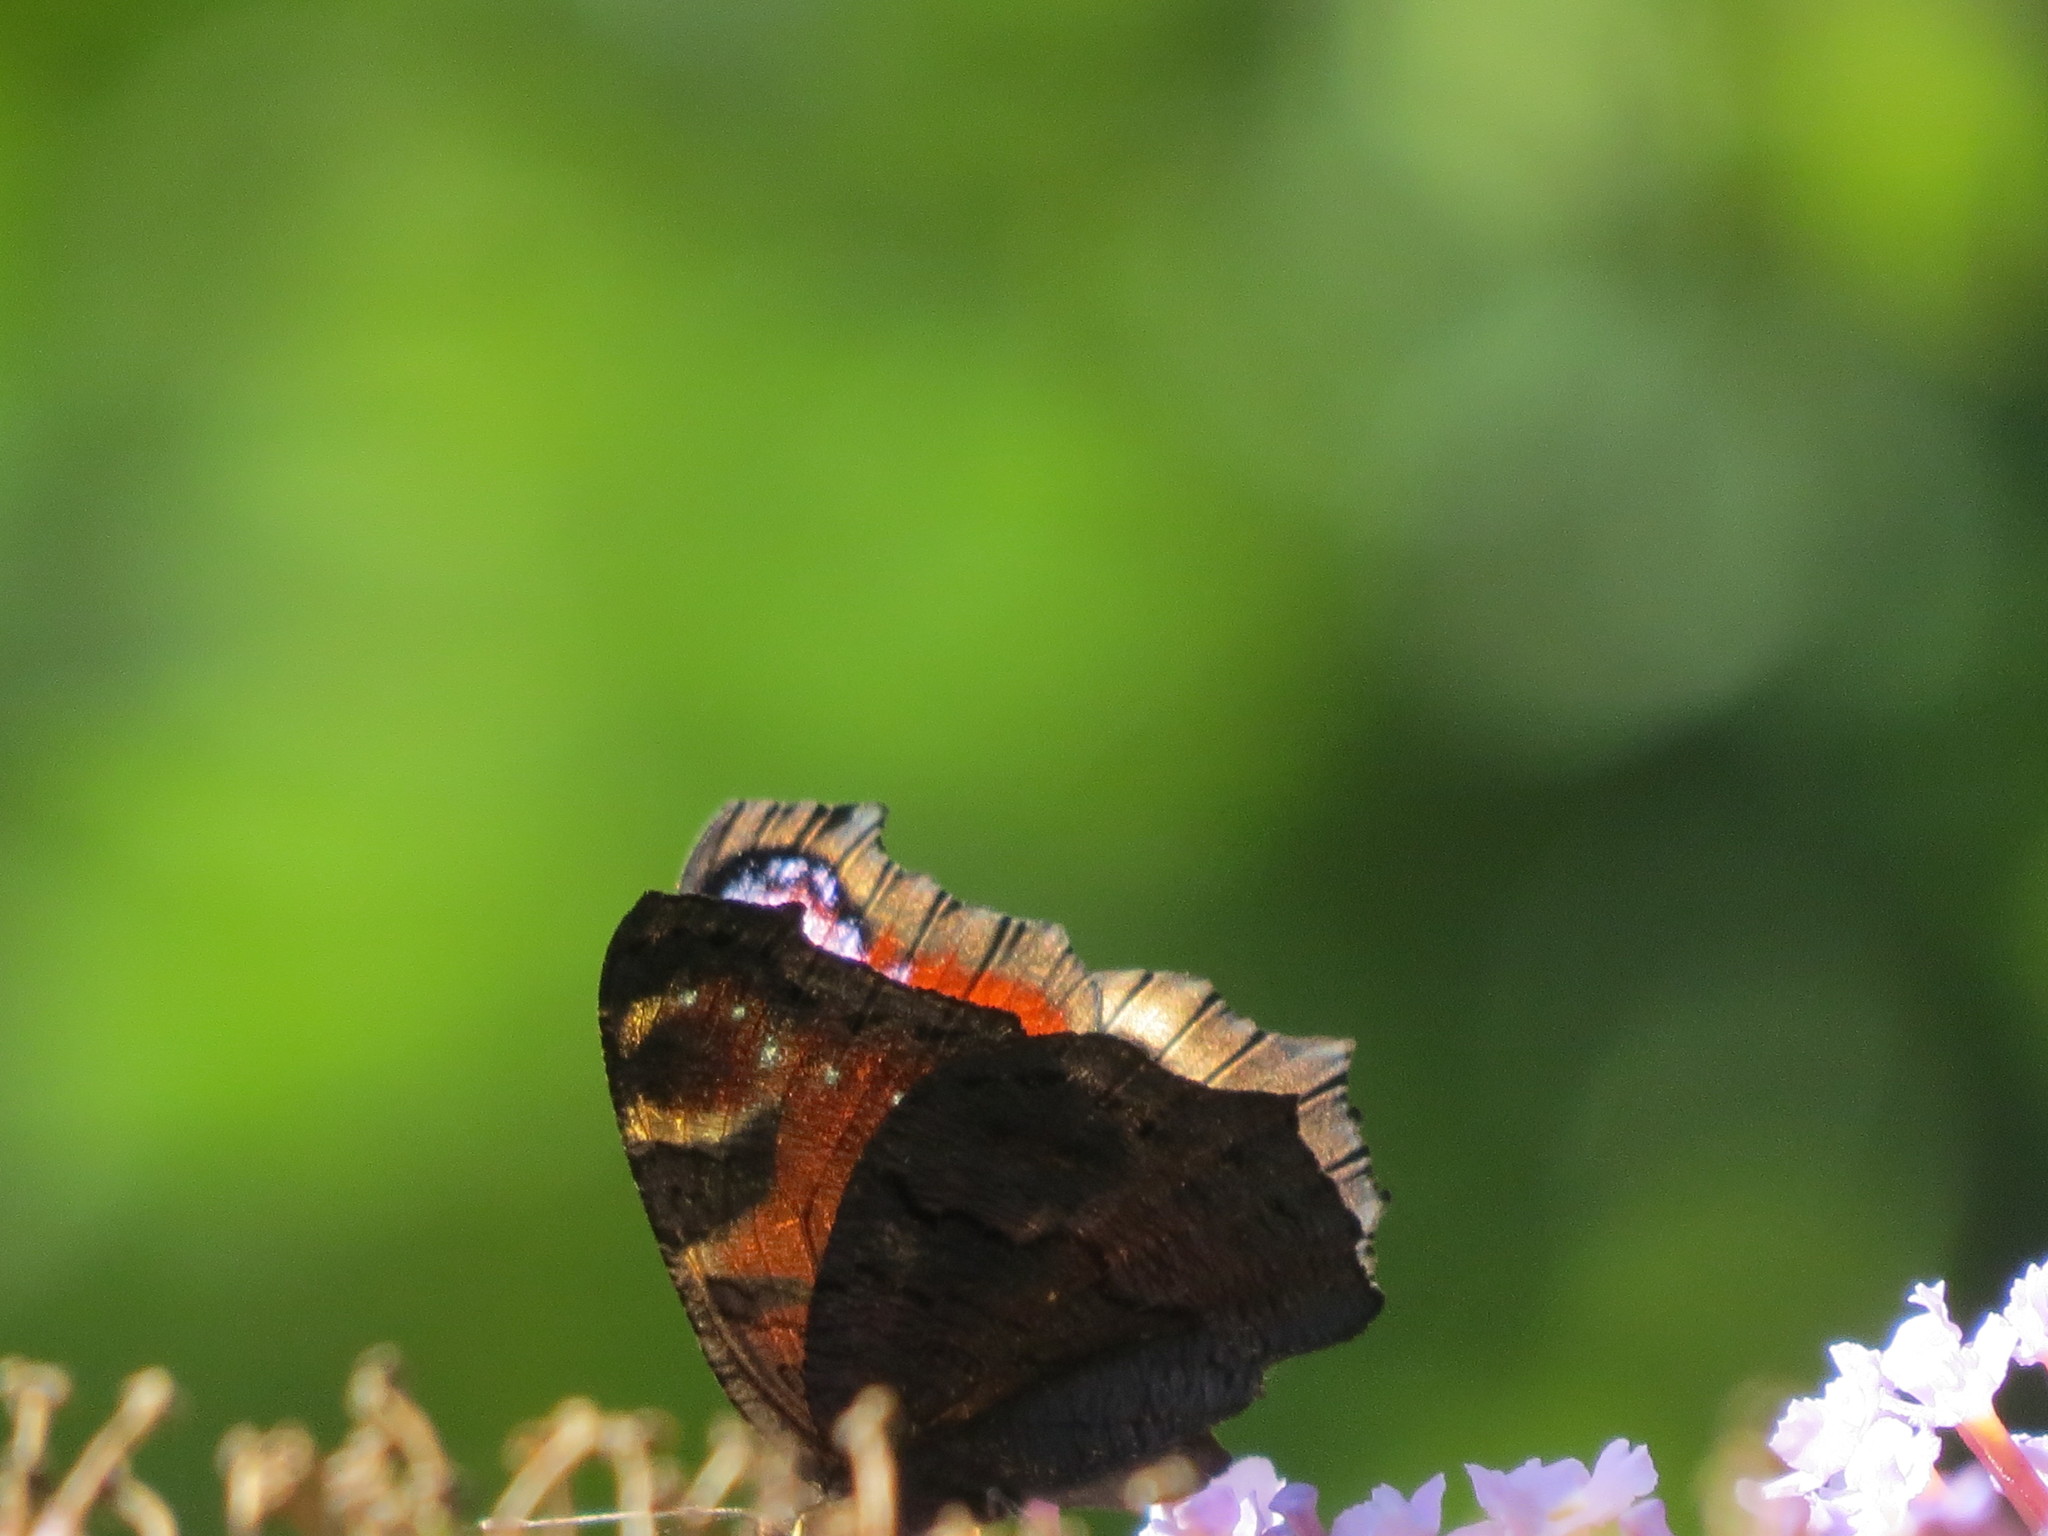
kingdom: Animalia
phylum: Arthropoda
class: Insecta
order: Lepidoptera
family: Nymphalidae
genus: Aglais
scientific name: Aglais io
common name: Peacock
